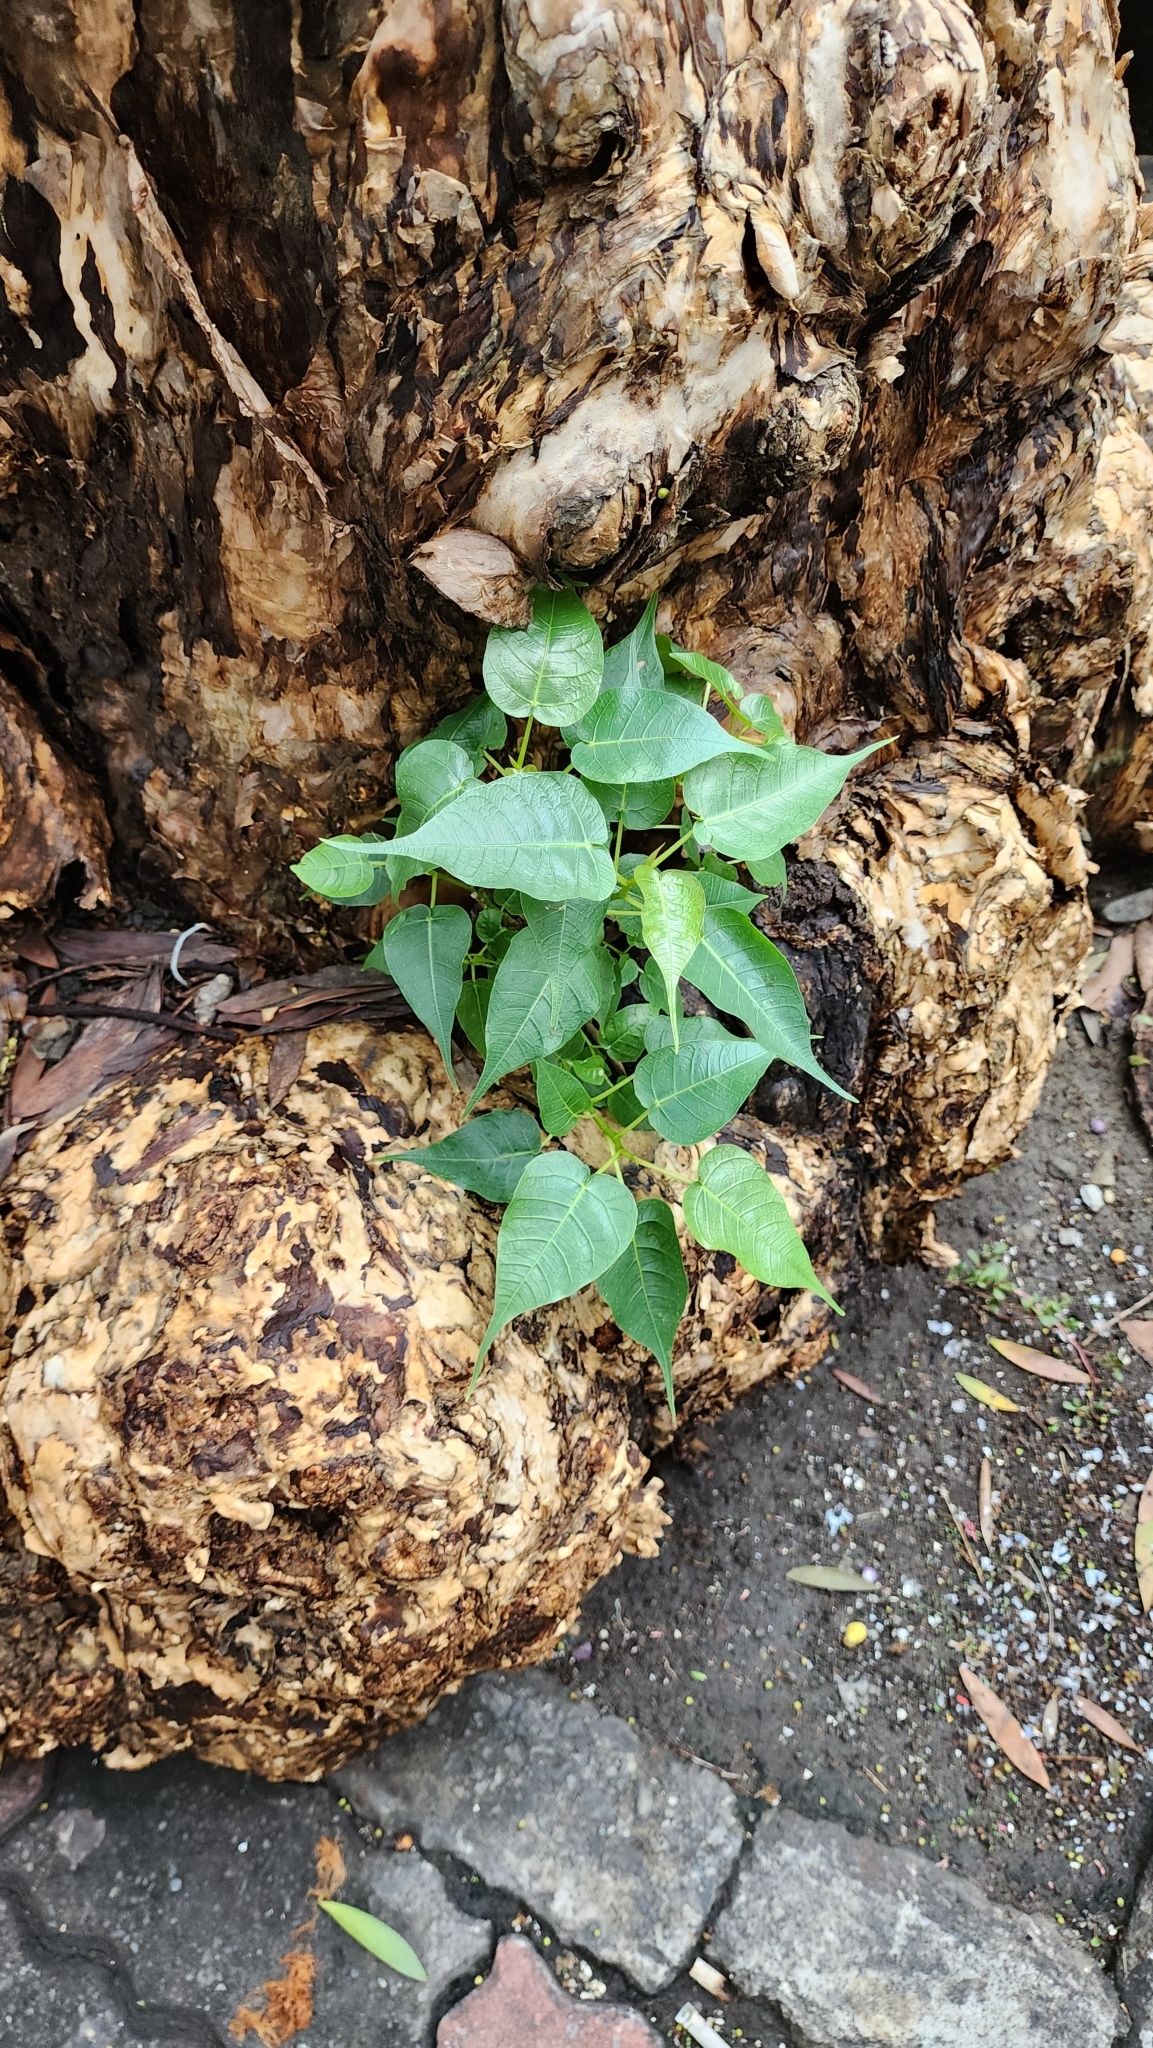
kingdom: Plantae
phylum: Tracheophyta
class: Magnoliopsida
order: Rosales
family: Moraceae
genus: Ficus
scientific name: Ficus religiosa
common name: Bodhi tree
